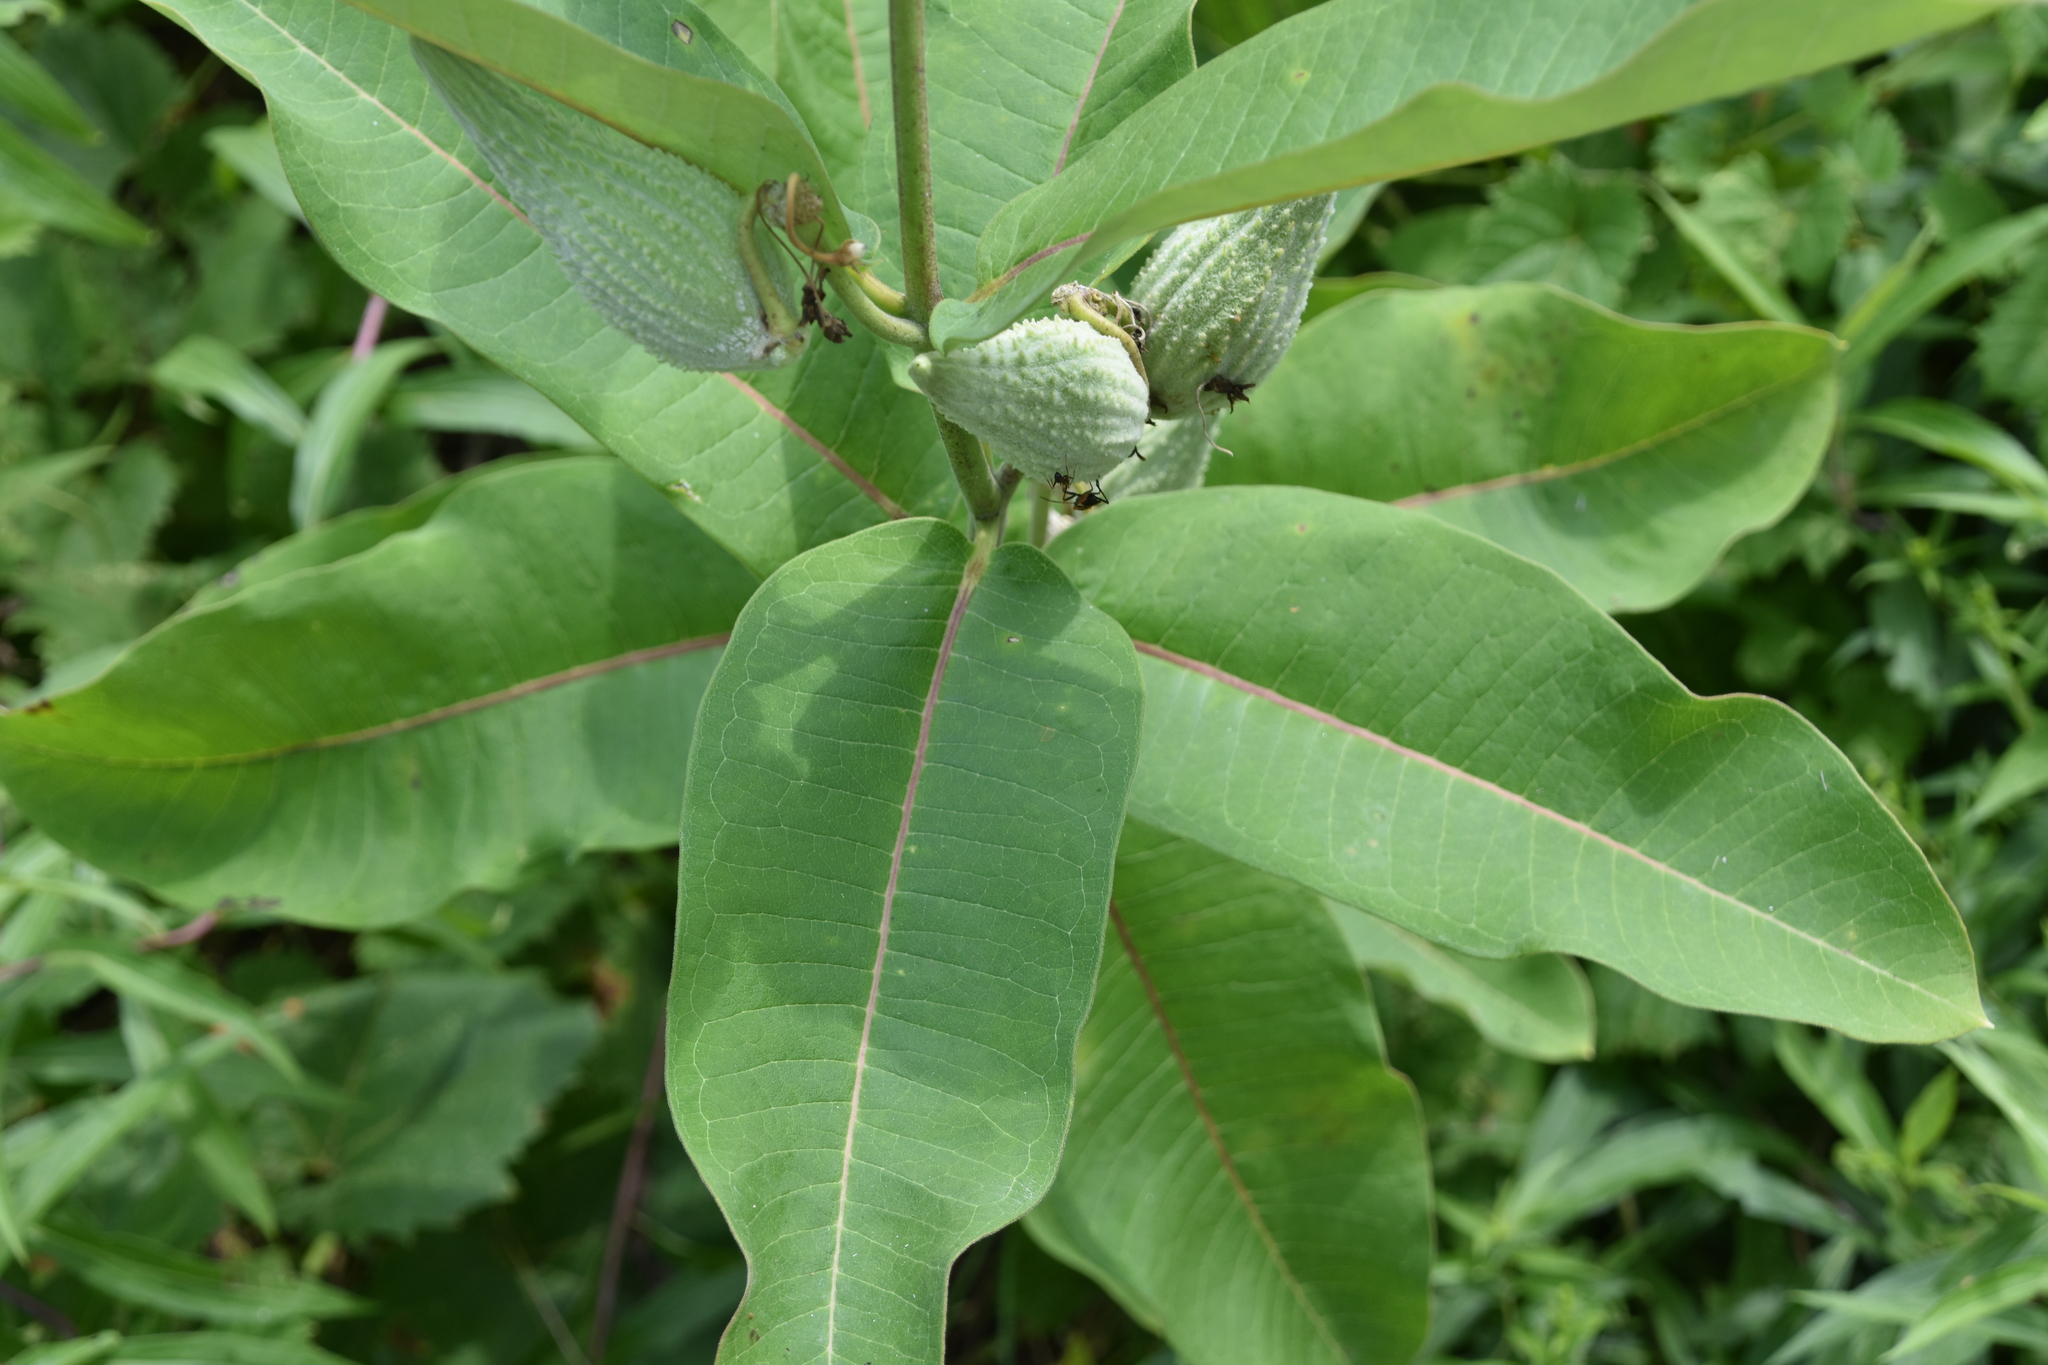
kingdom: Plantae
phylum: Tracheophyta
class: Magnoliopsida
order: Gentianales
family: Apocynaceae
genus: Asclepias
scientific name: Asclepias syriaca
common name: Common milkweed
